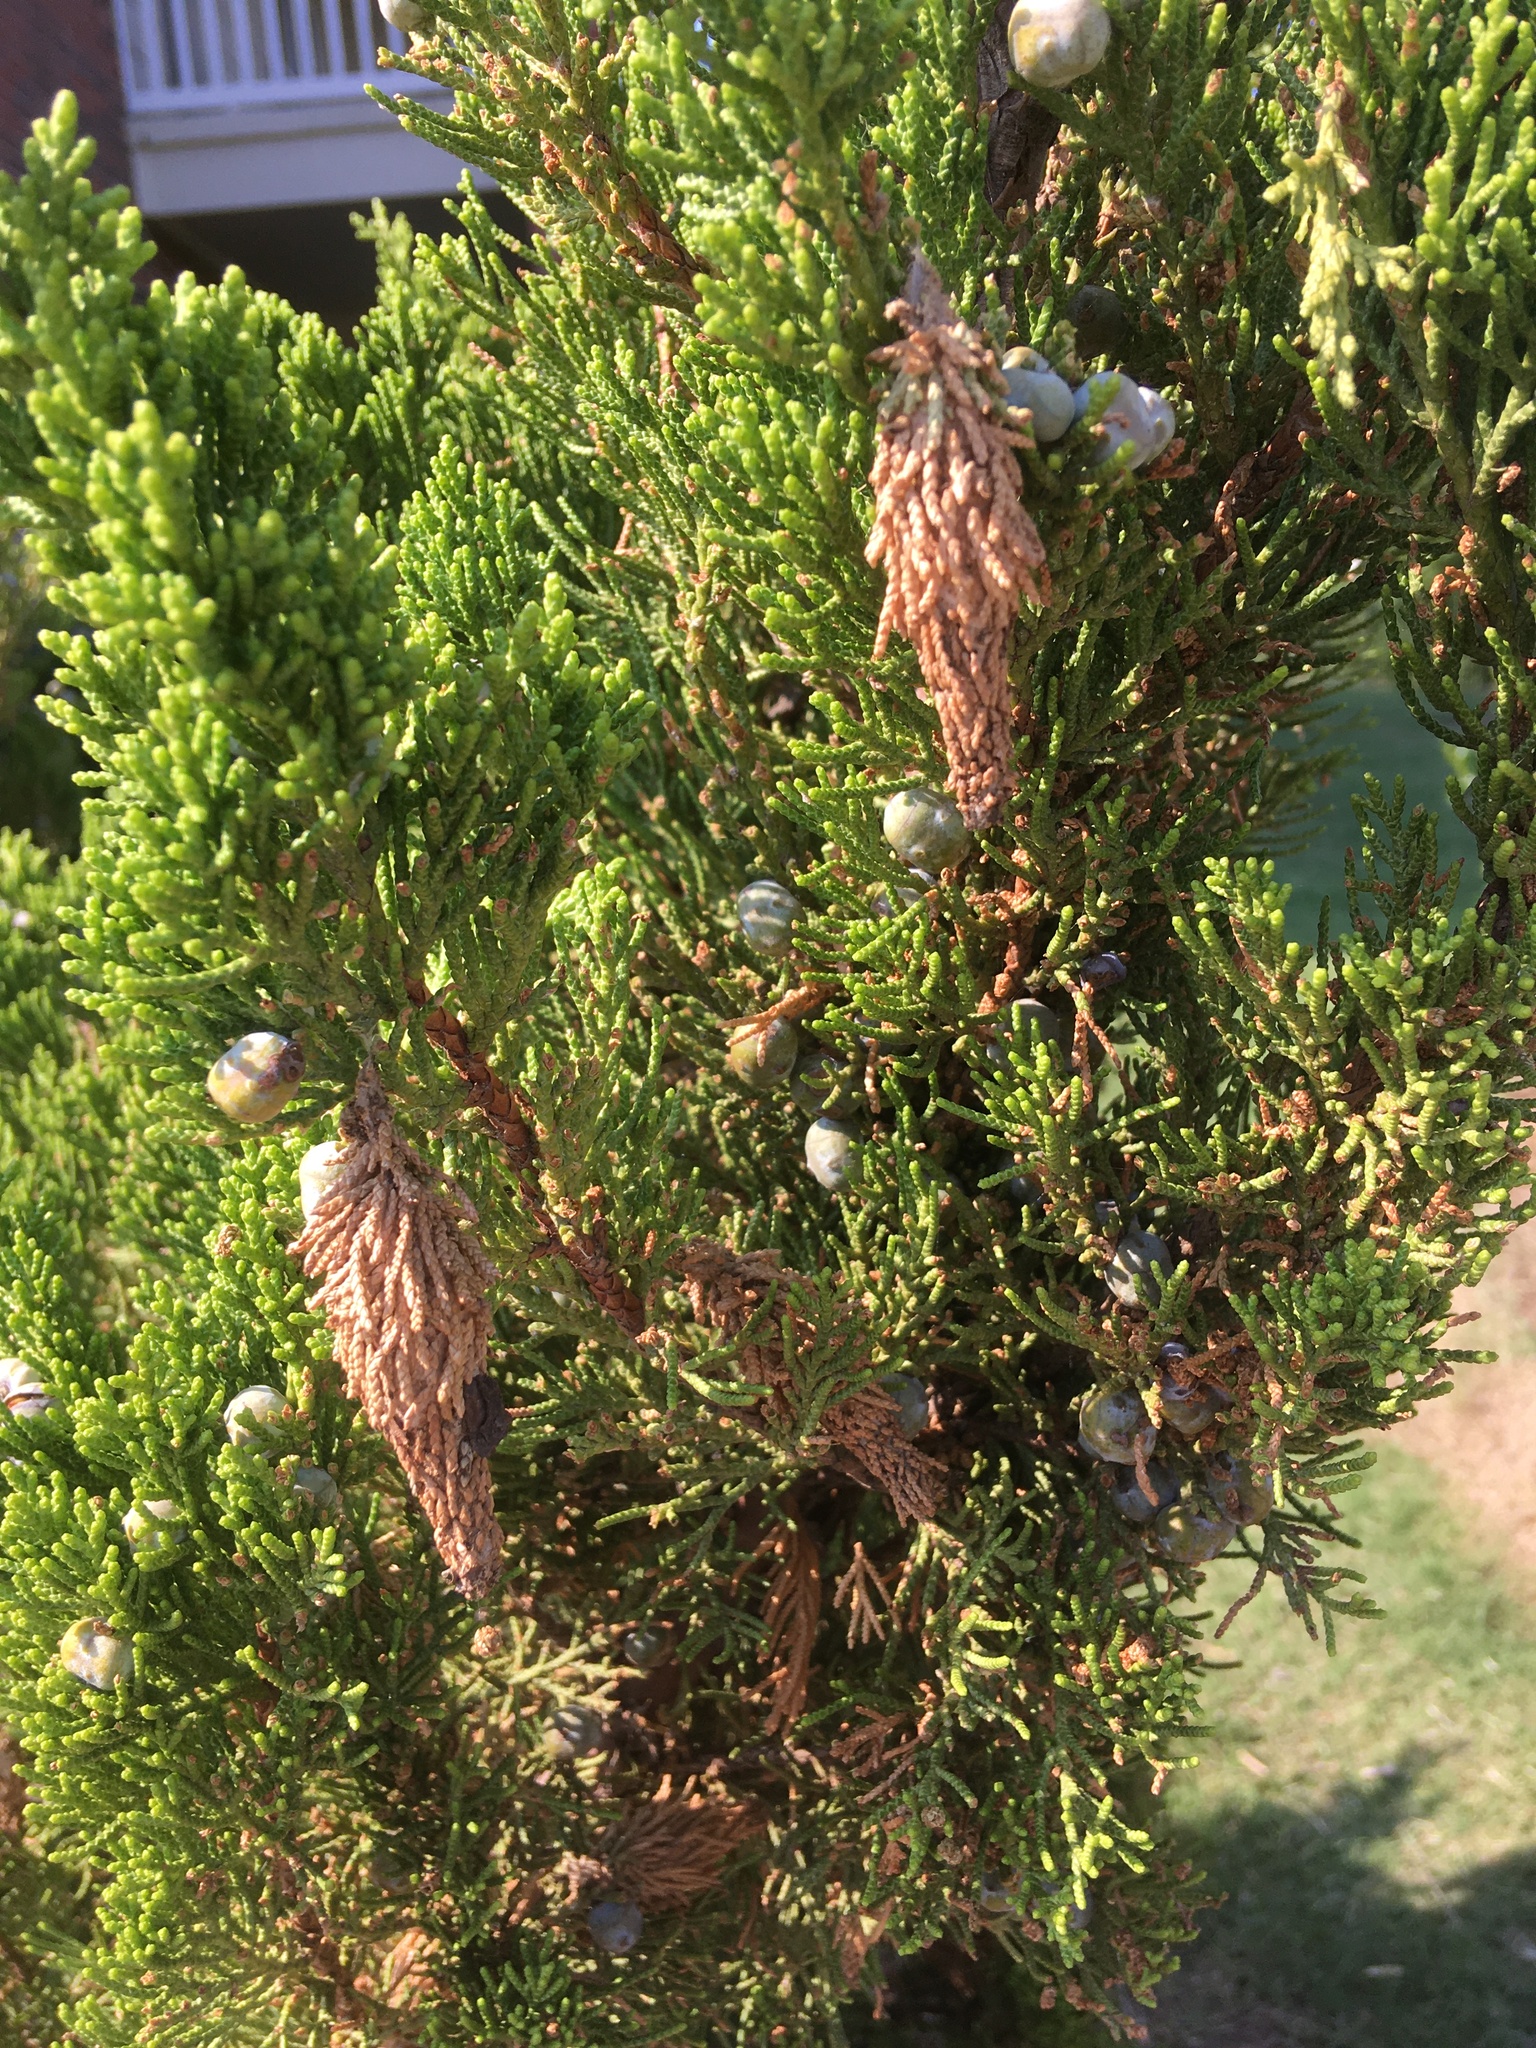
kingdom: Animalia
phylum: Arthropoda
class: Insecta
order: Lepidoptera
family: Psychidae
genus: Thyridopteryx
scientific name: Thyridopteryx ephemeraeformis
